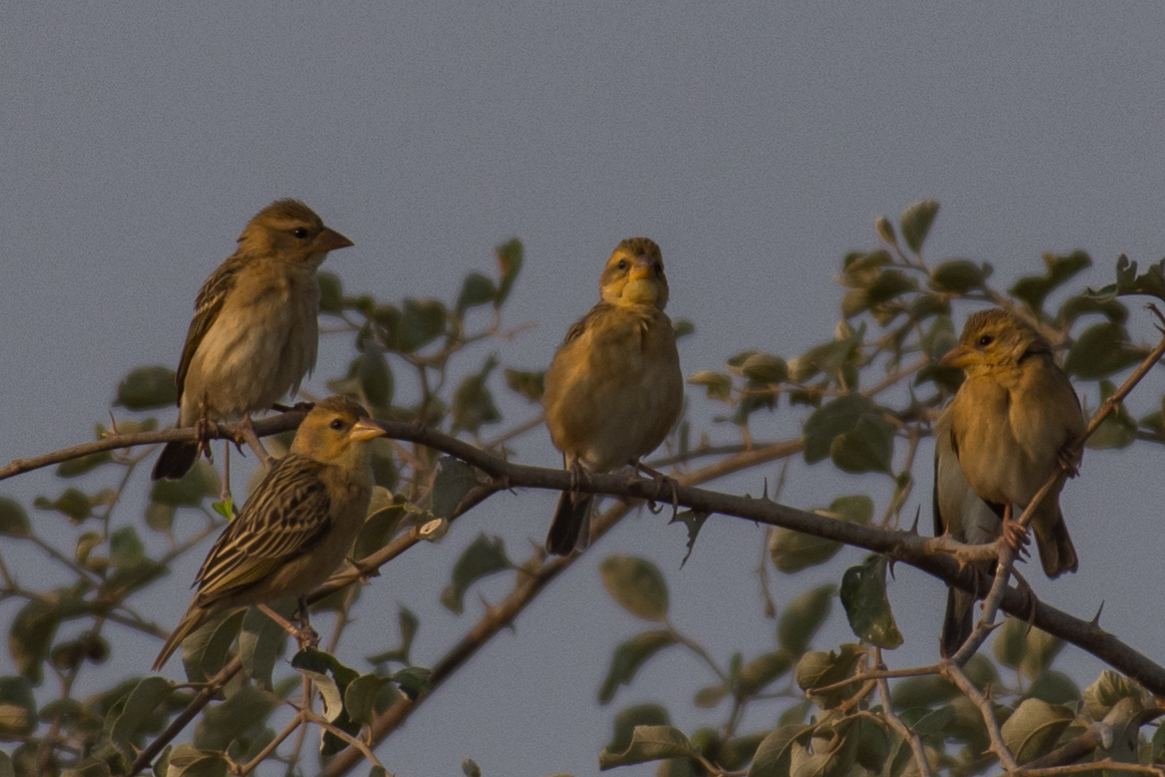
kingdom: Animalia
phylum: Chordata
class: Aves
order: Passeriformes
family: Ploceidae
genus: Ploceus
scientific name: Ploceus manyar
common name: Streaked weaver
